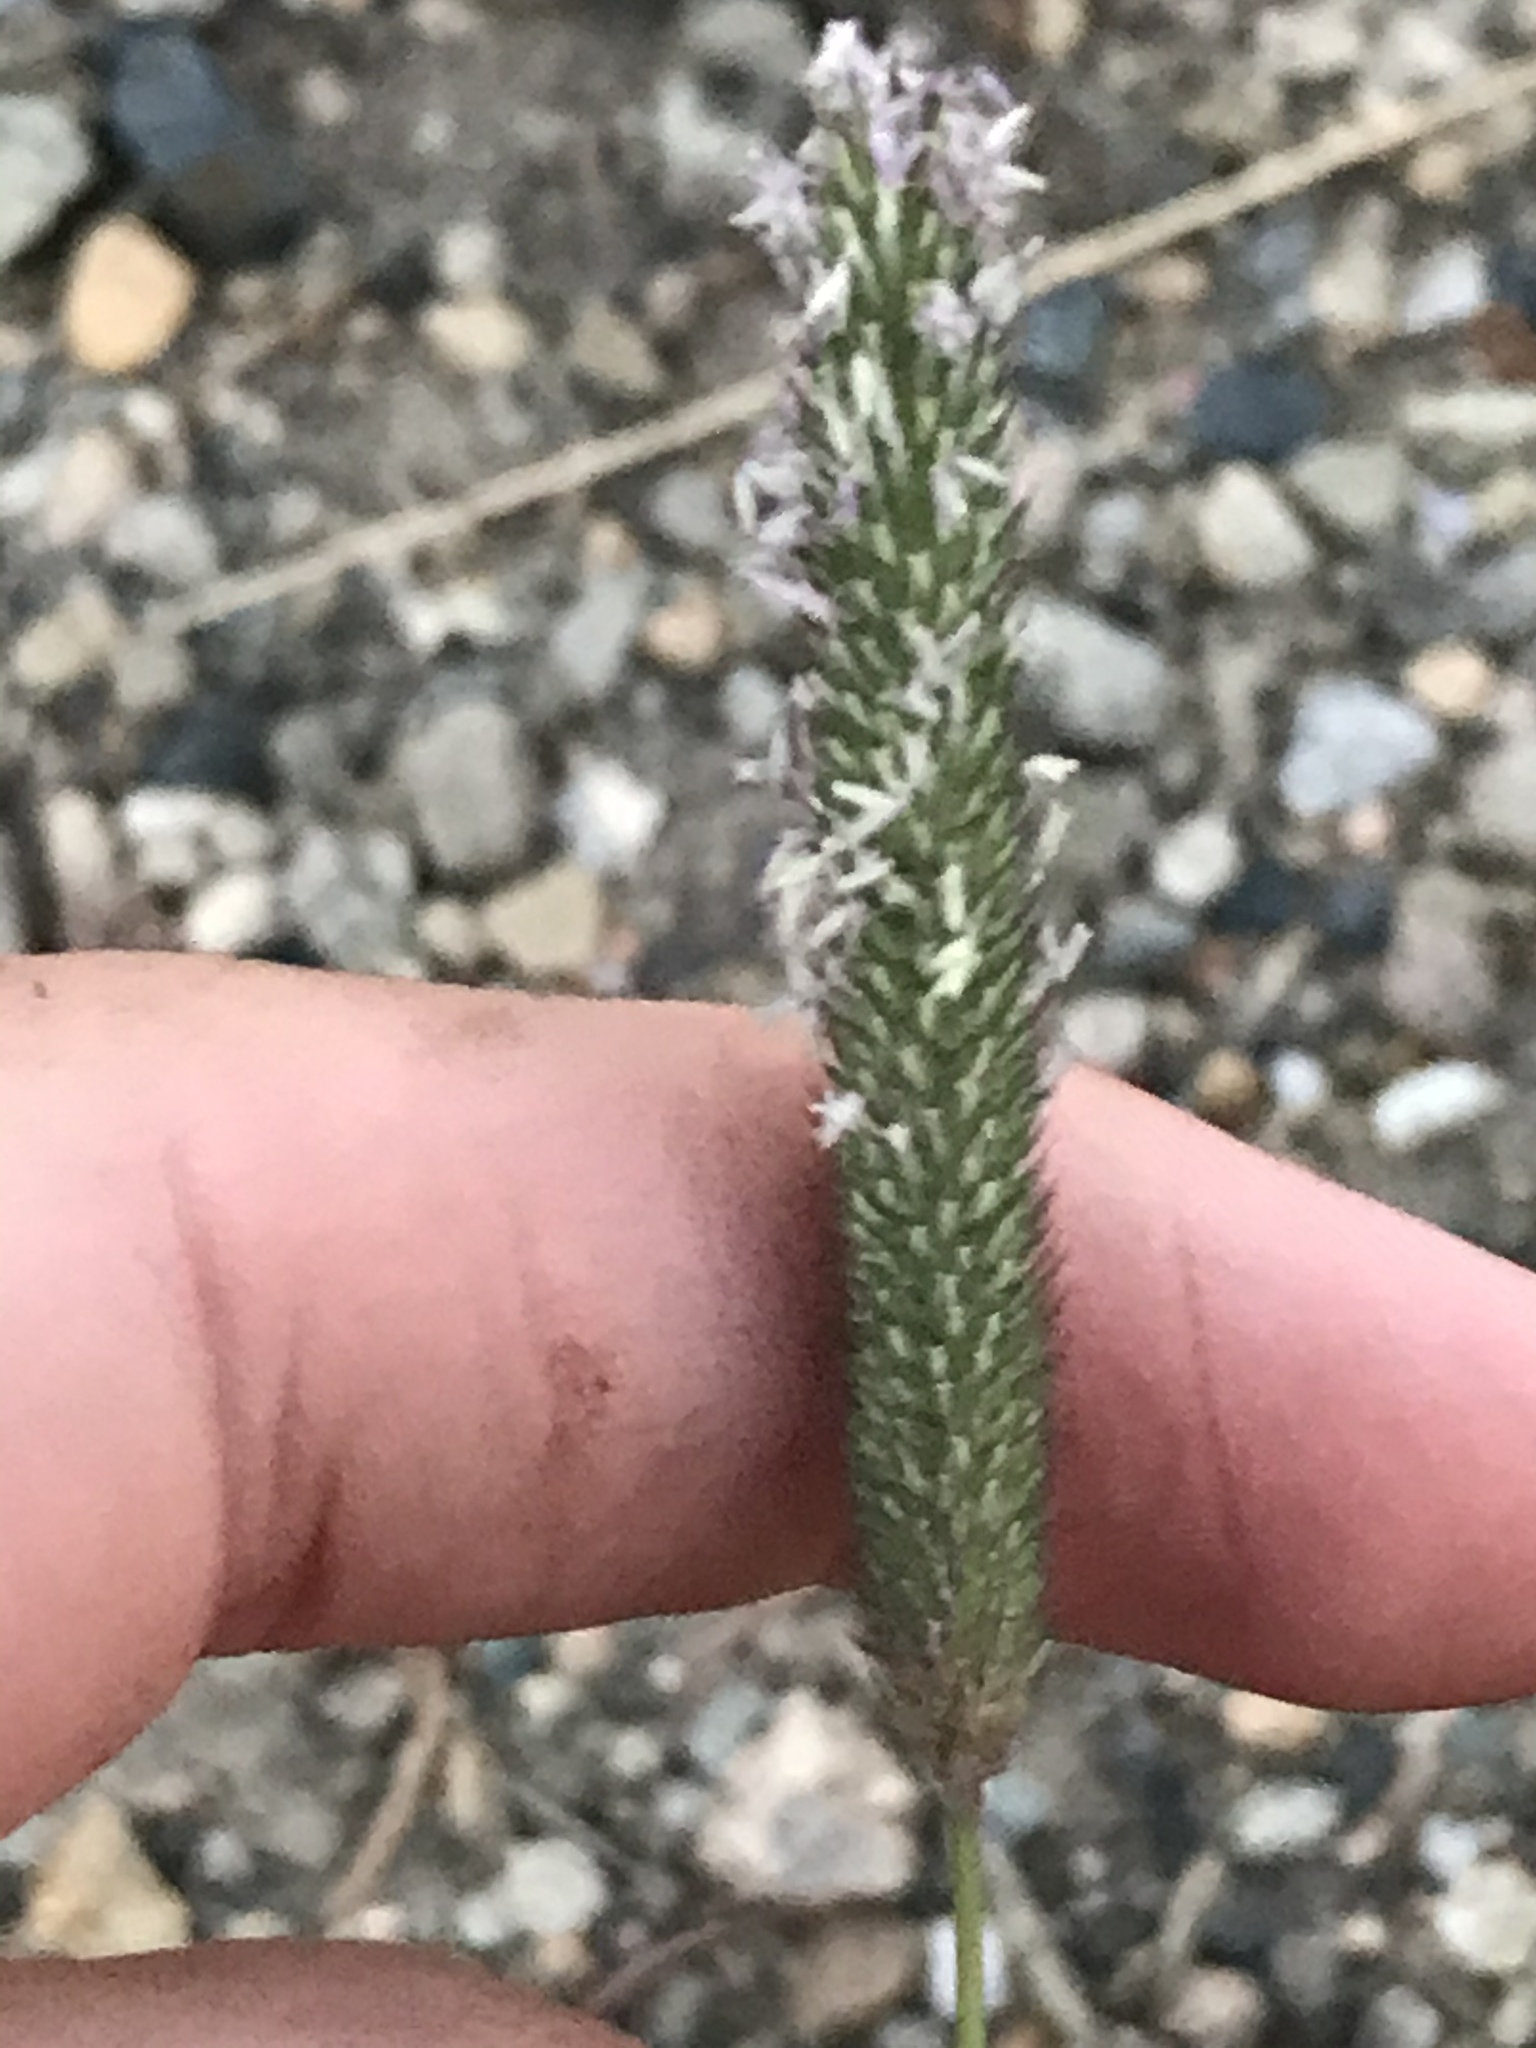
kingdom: Plantae
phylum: Tracheophyta
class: Liliopsida
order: Poales
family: Poaceae
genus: Phleum
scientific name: Phleum pratense
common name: Timothy grass
